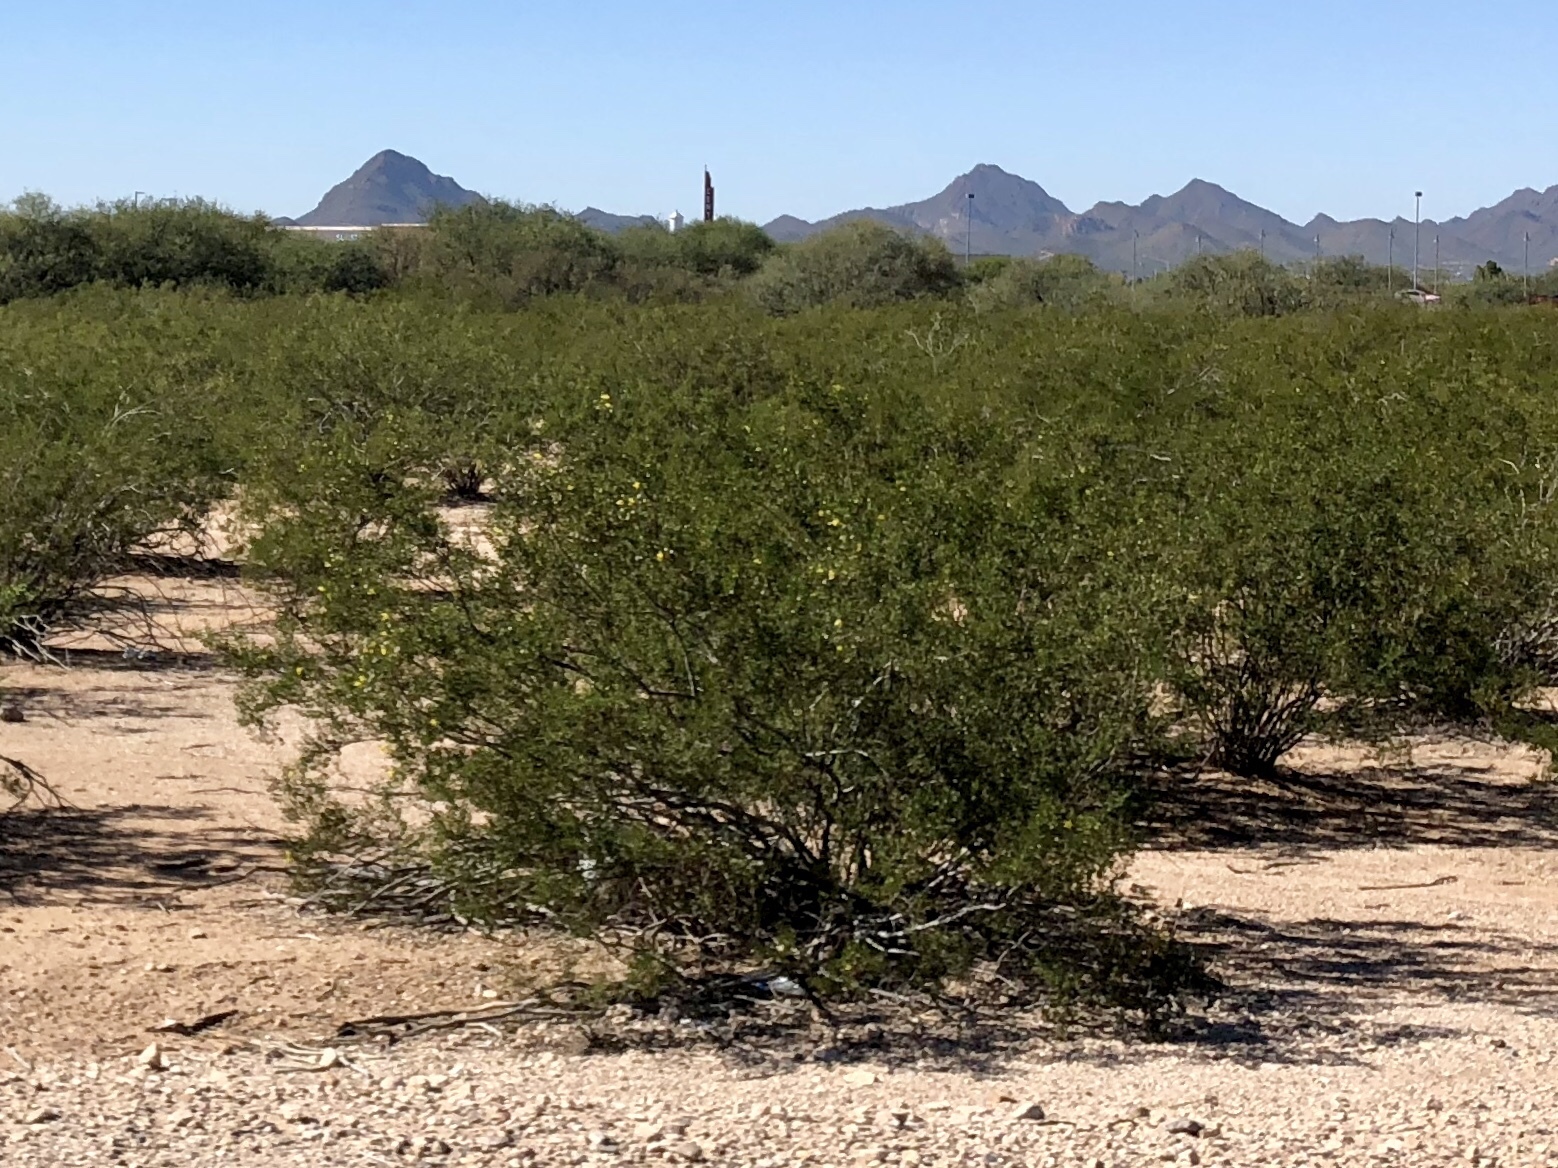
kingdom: Plantae
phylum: Tracheophyta
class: Magnoliopsida
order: Zygophyllales
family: Zygophyllaceae
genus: Larrea
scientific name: Larrea tridentata
